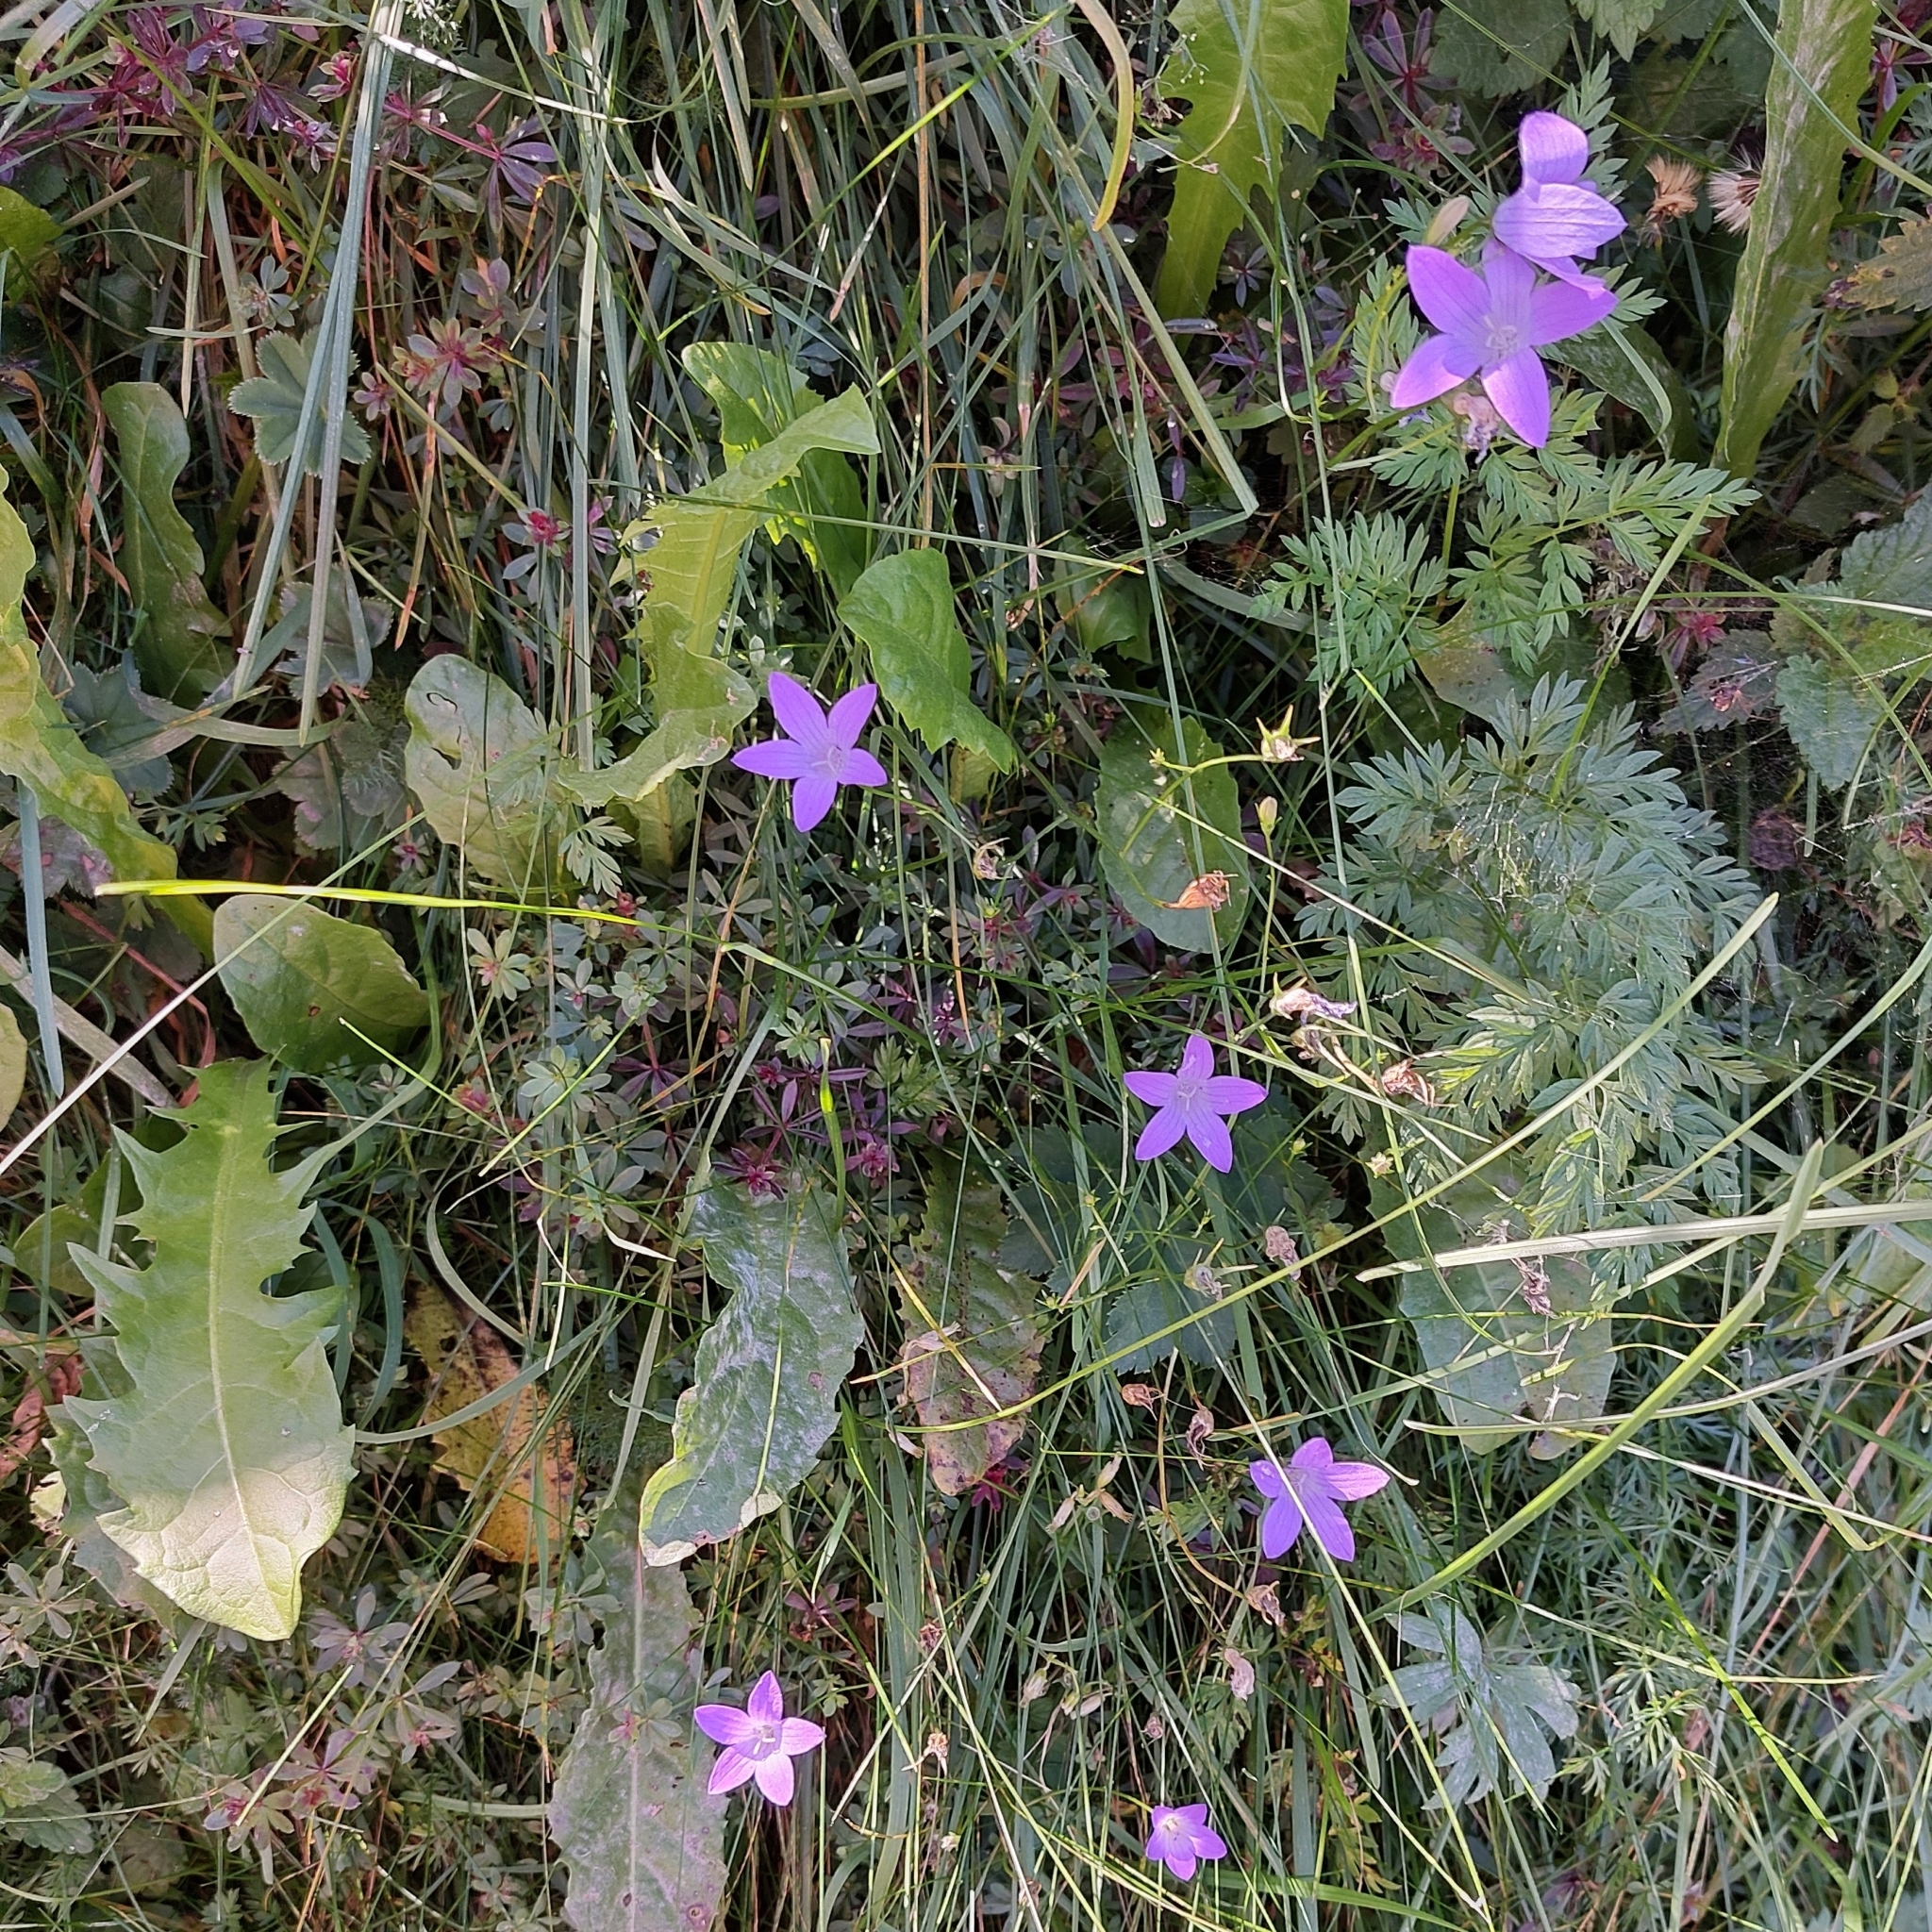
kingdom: Plantae
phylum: Tracheophyta
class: Magnoliopsida
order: Asterales
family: Campanulaceae
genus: Campanula
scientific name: Campanula patula
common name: Spreading bellflower
